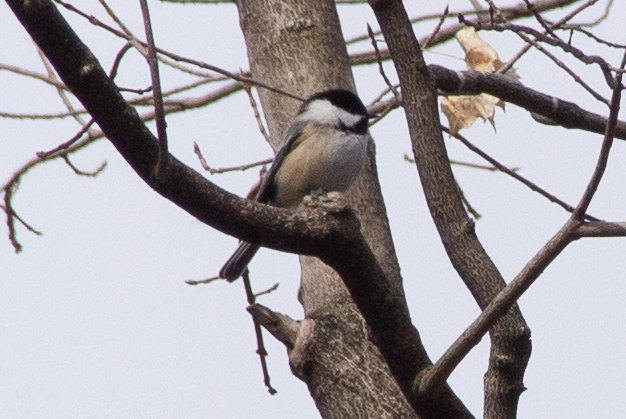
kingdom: Animalia
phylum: Chordata
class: Aves
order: Passeriformes
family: Paridae
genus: Poecile
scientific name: Poecile atricapillus
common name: Black-capped chickadee
